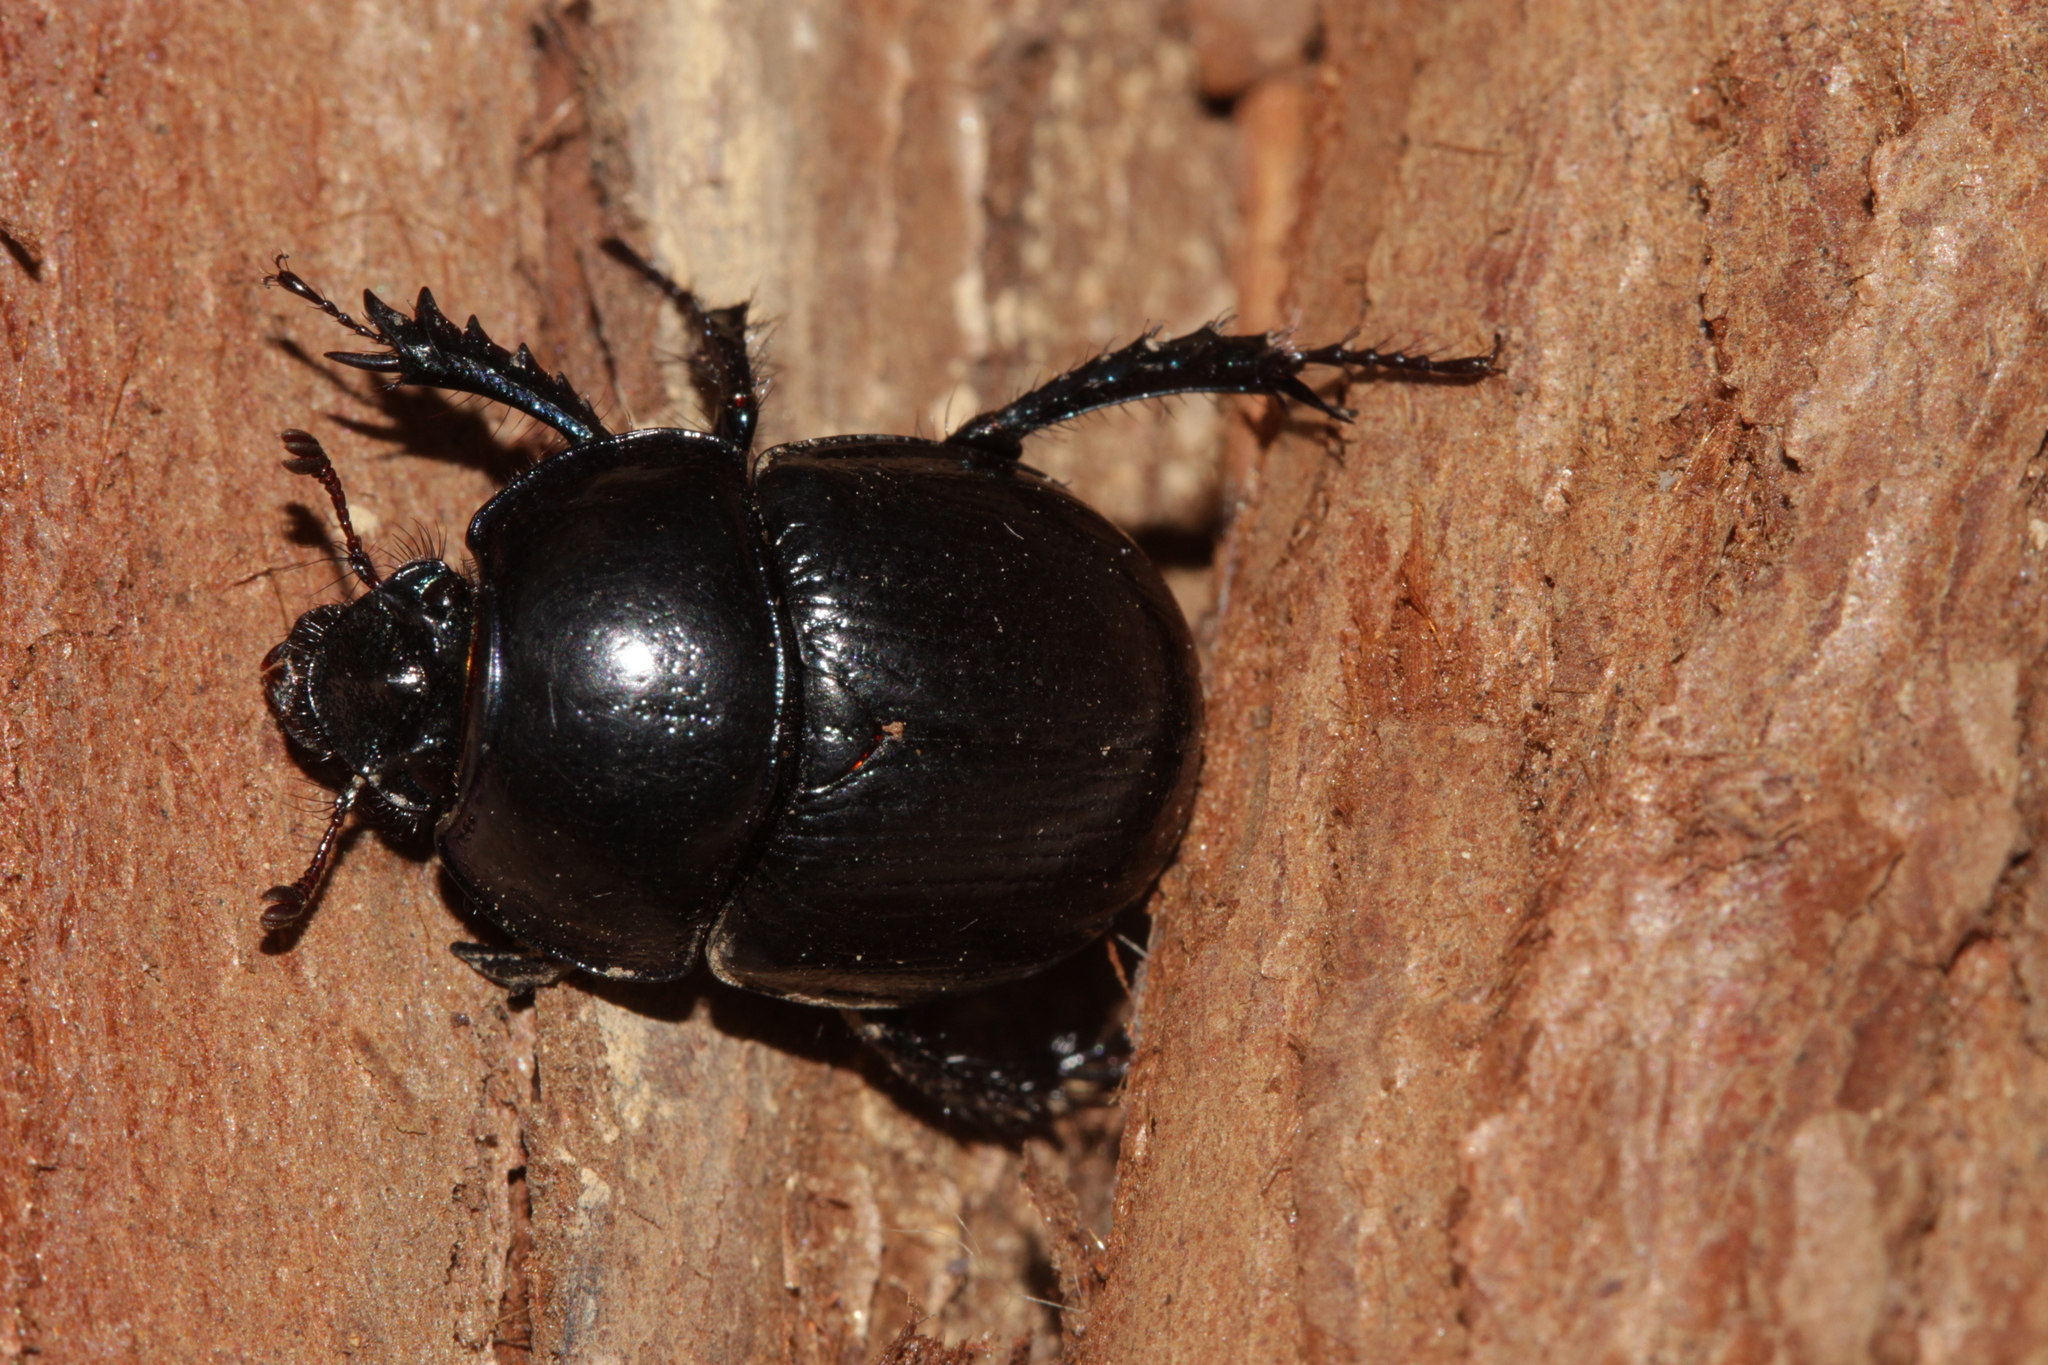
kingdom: Animalia
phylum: Arthropoda
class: Insecta
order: Coleoptera
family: Geotrupidae
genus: Anoplotrupes
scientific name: Anoplotrupes stercorosus
